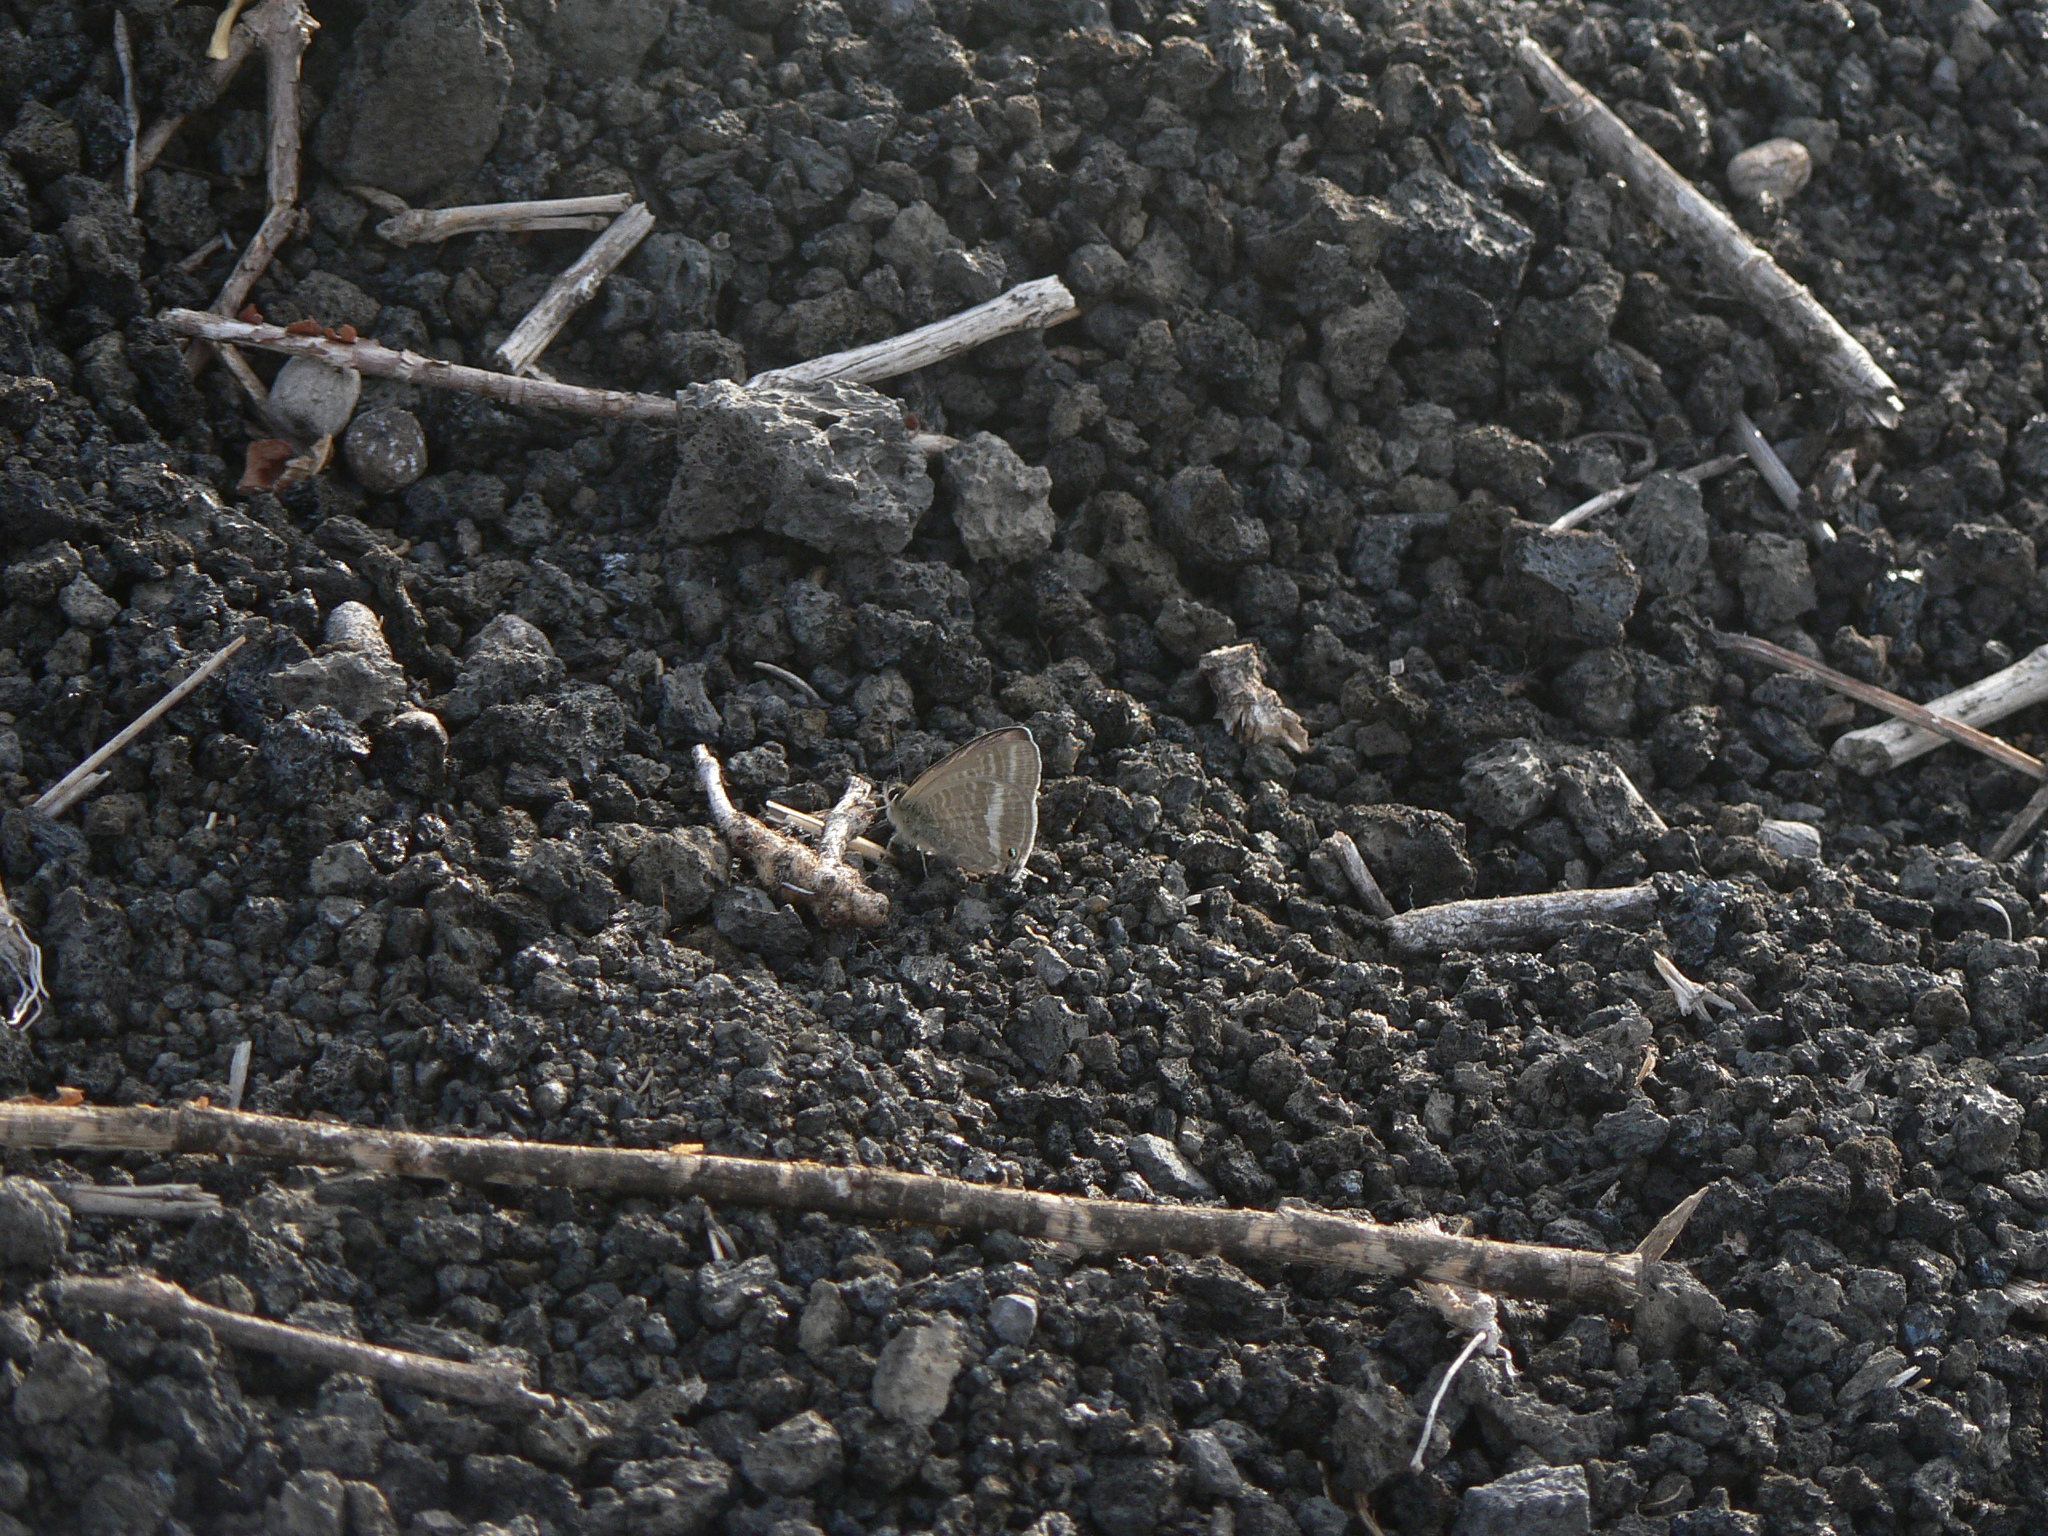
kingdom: Animalia
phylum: Arthropoda
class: Insecta
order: Lepidoptera
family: Lycaenidae
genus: Lampides
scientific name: Lampides boeticus
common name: Long-tailed blue
